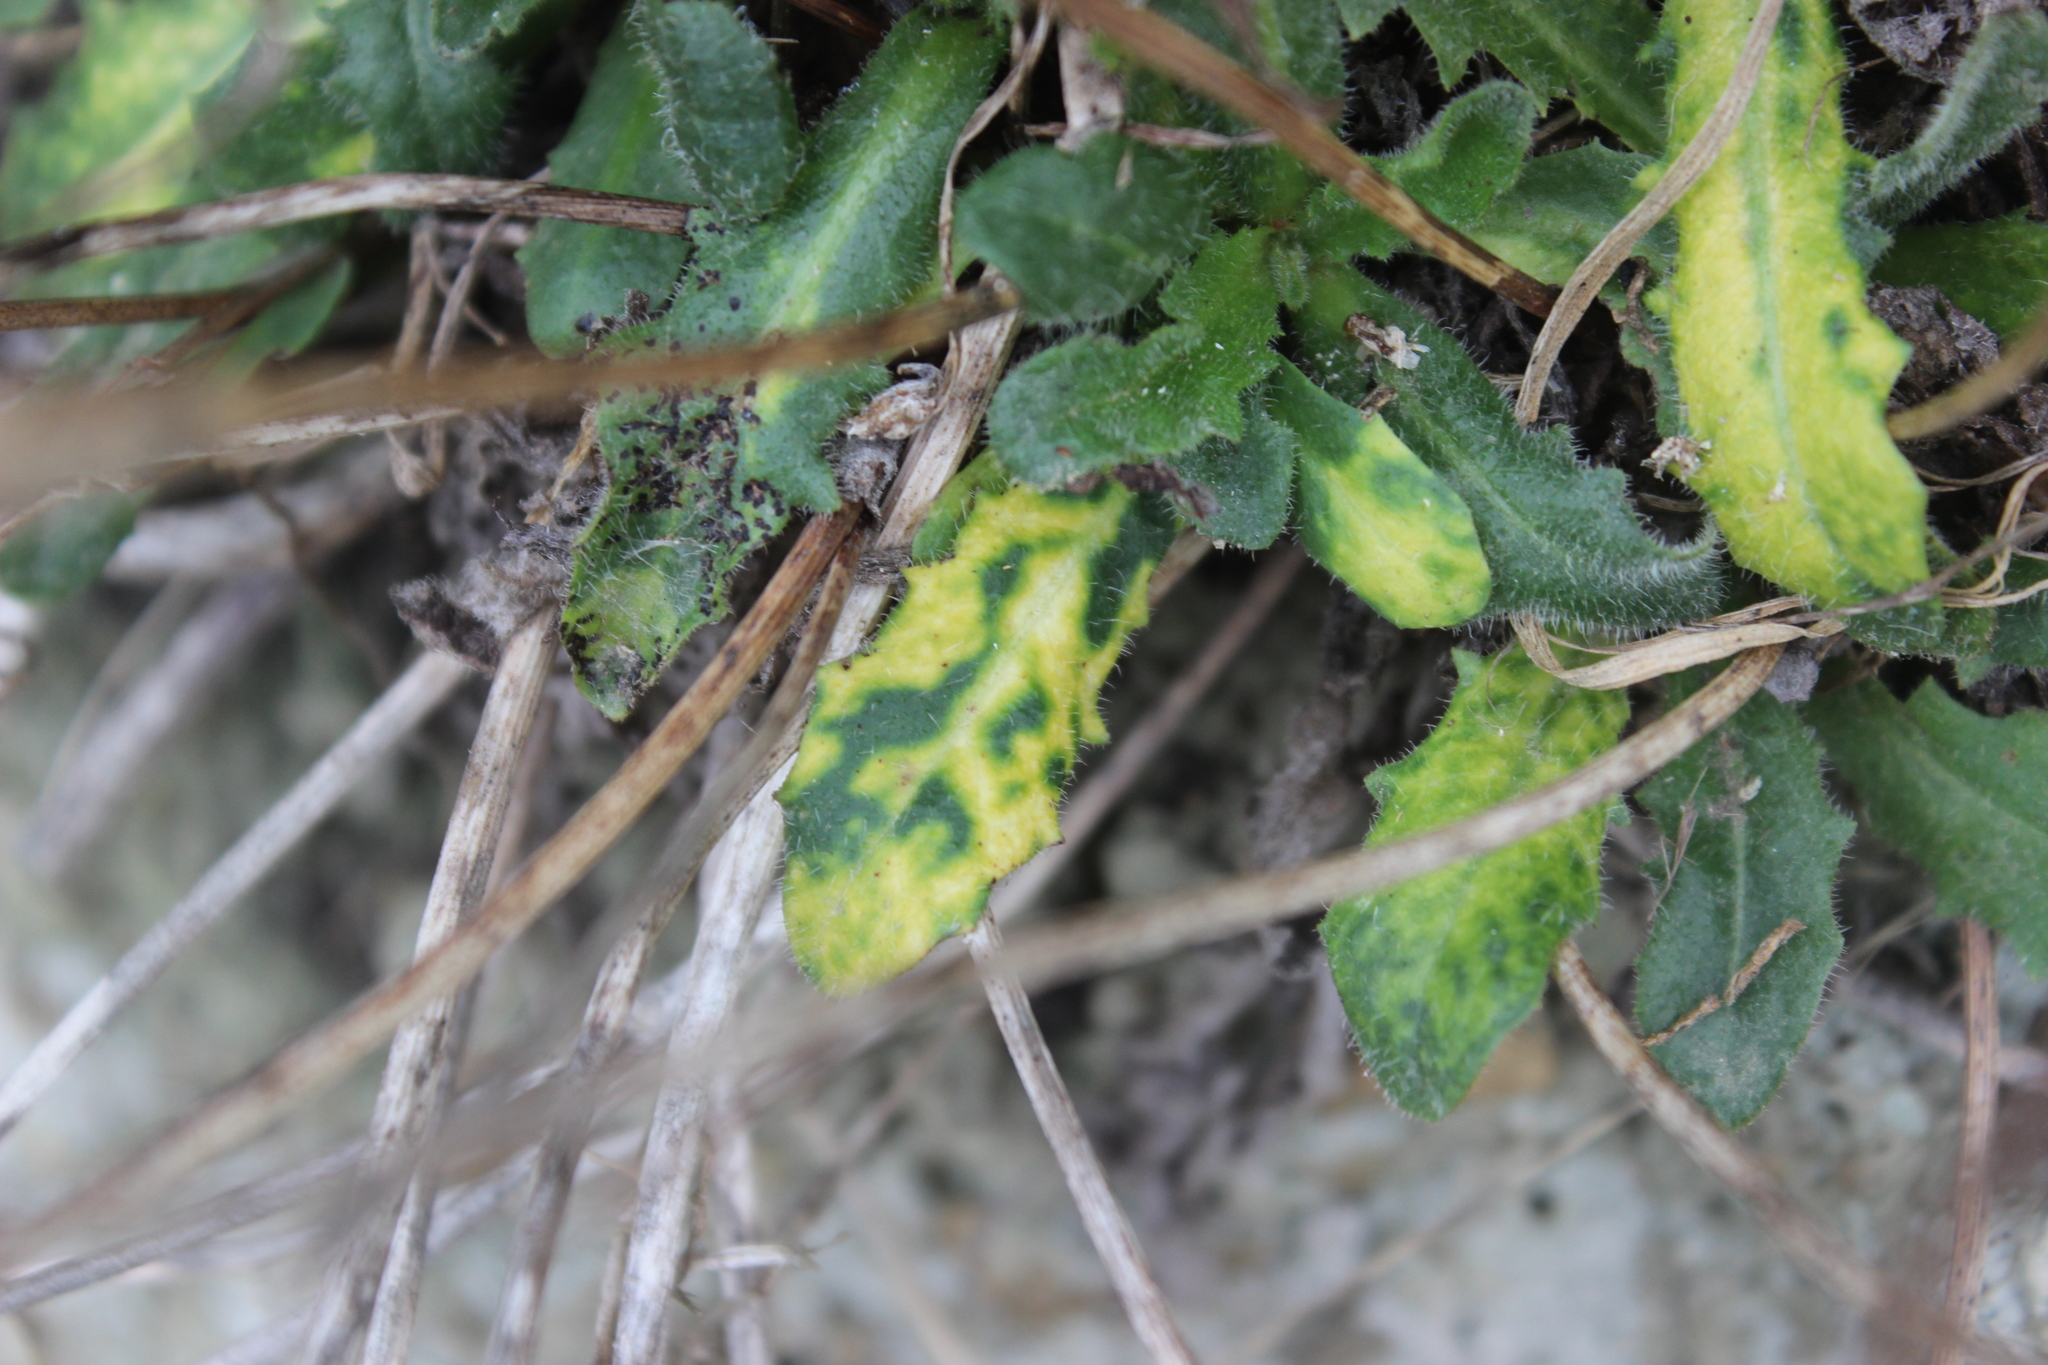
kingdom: Plantae
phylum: Tracheophyta
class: Magnoliopsida
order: Asterales
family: Asteraceae
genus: Hypochaeris
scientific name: Hypochaeris radicata
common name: Flatweed
